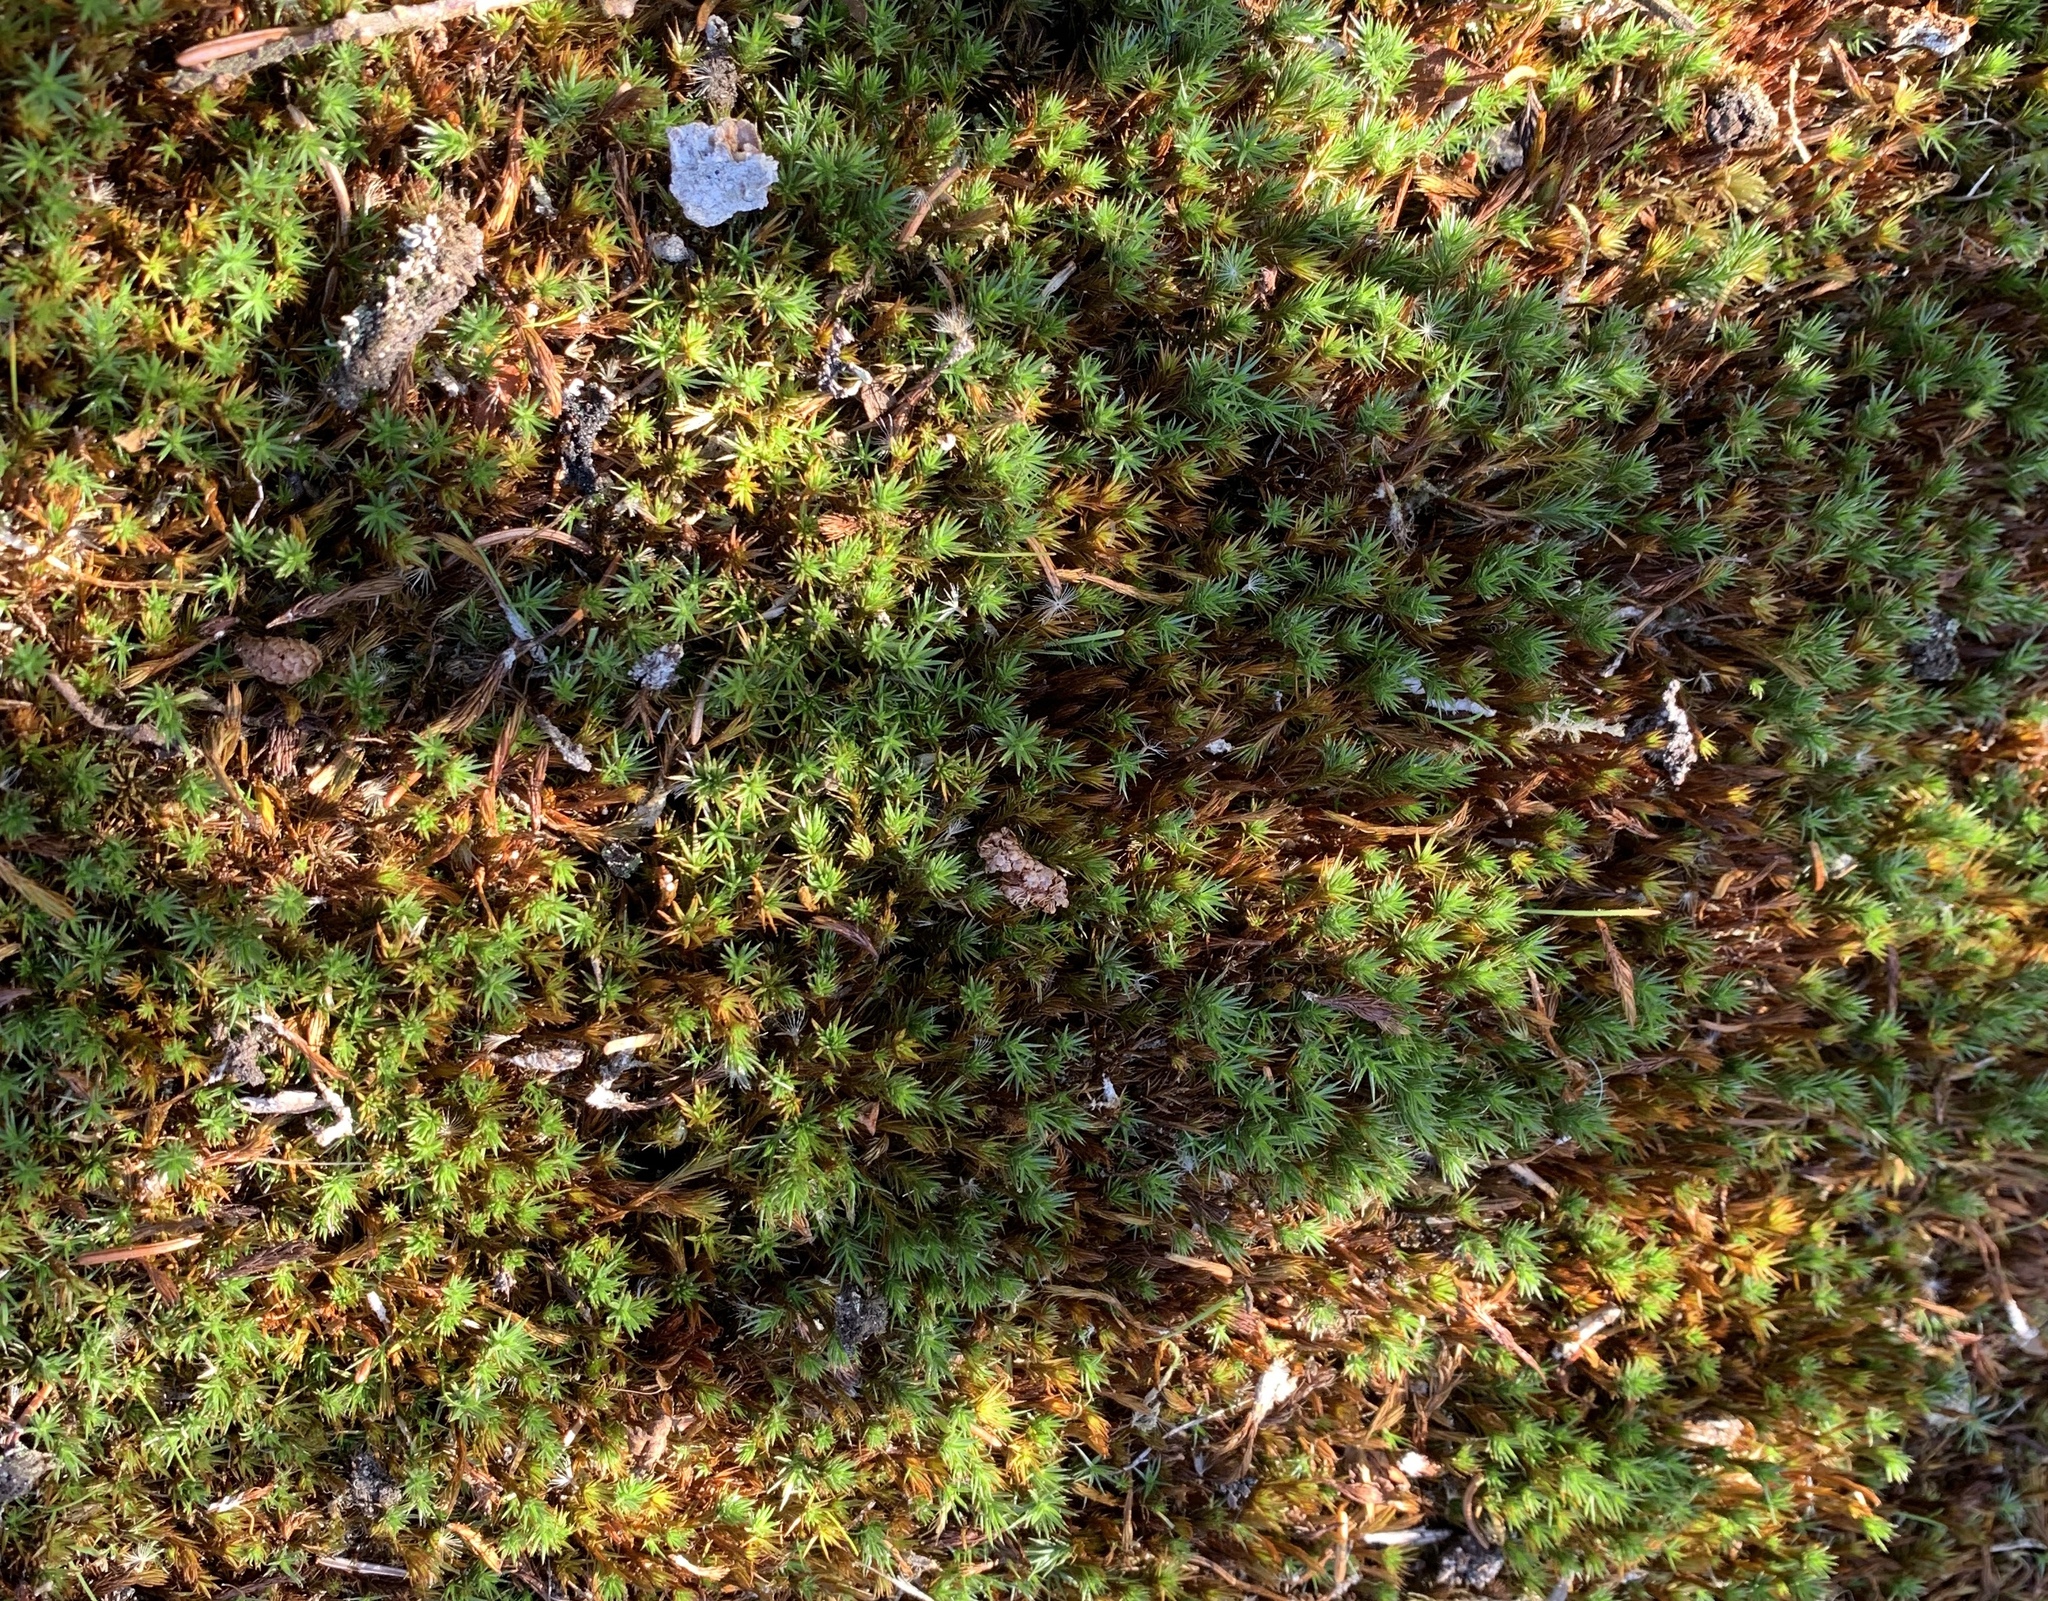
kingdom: Plantae
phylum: Bryophyta
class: Polytrichopsida
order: Polytrichales
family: Polytrichaceae
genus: Polytrichum
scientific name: Polytrichum commune
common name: Common haircap
